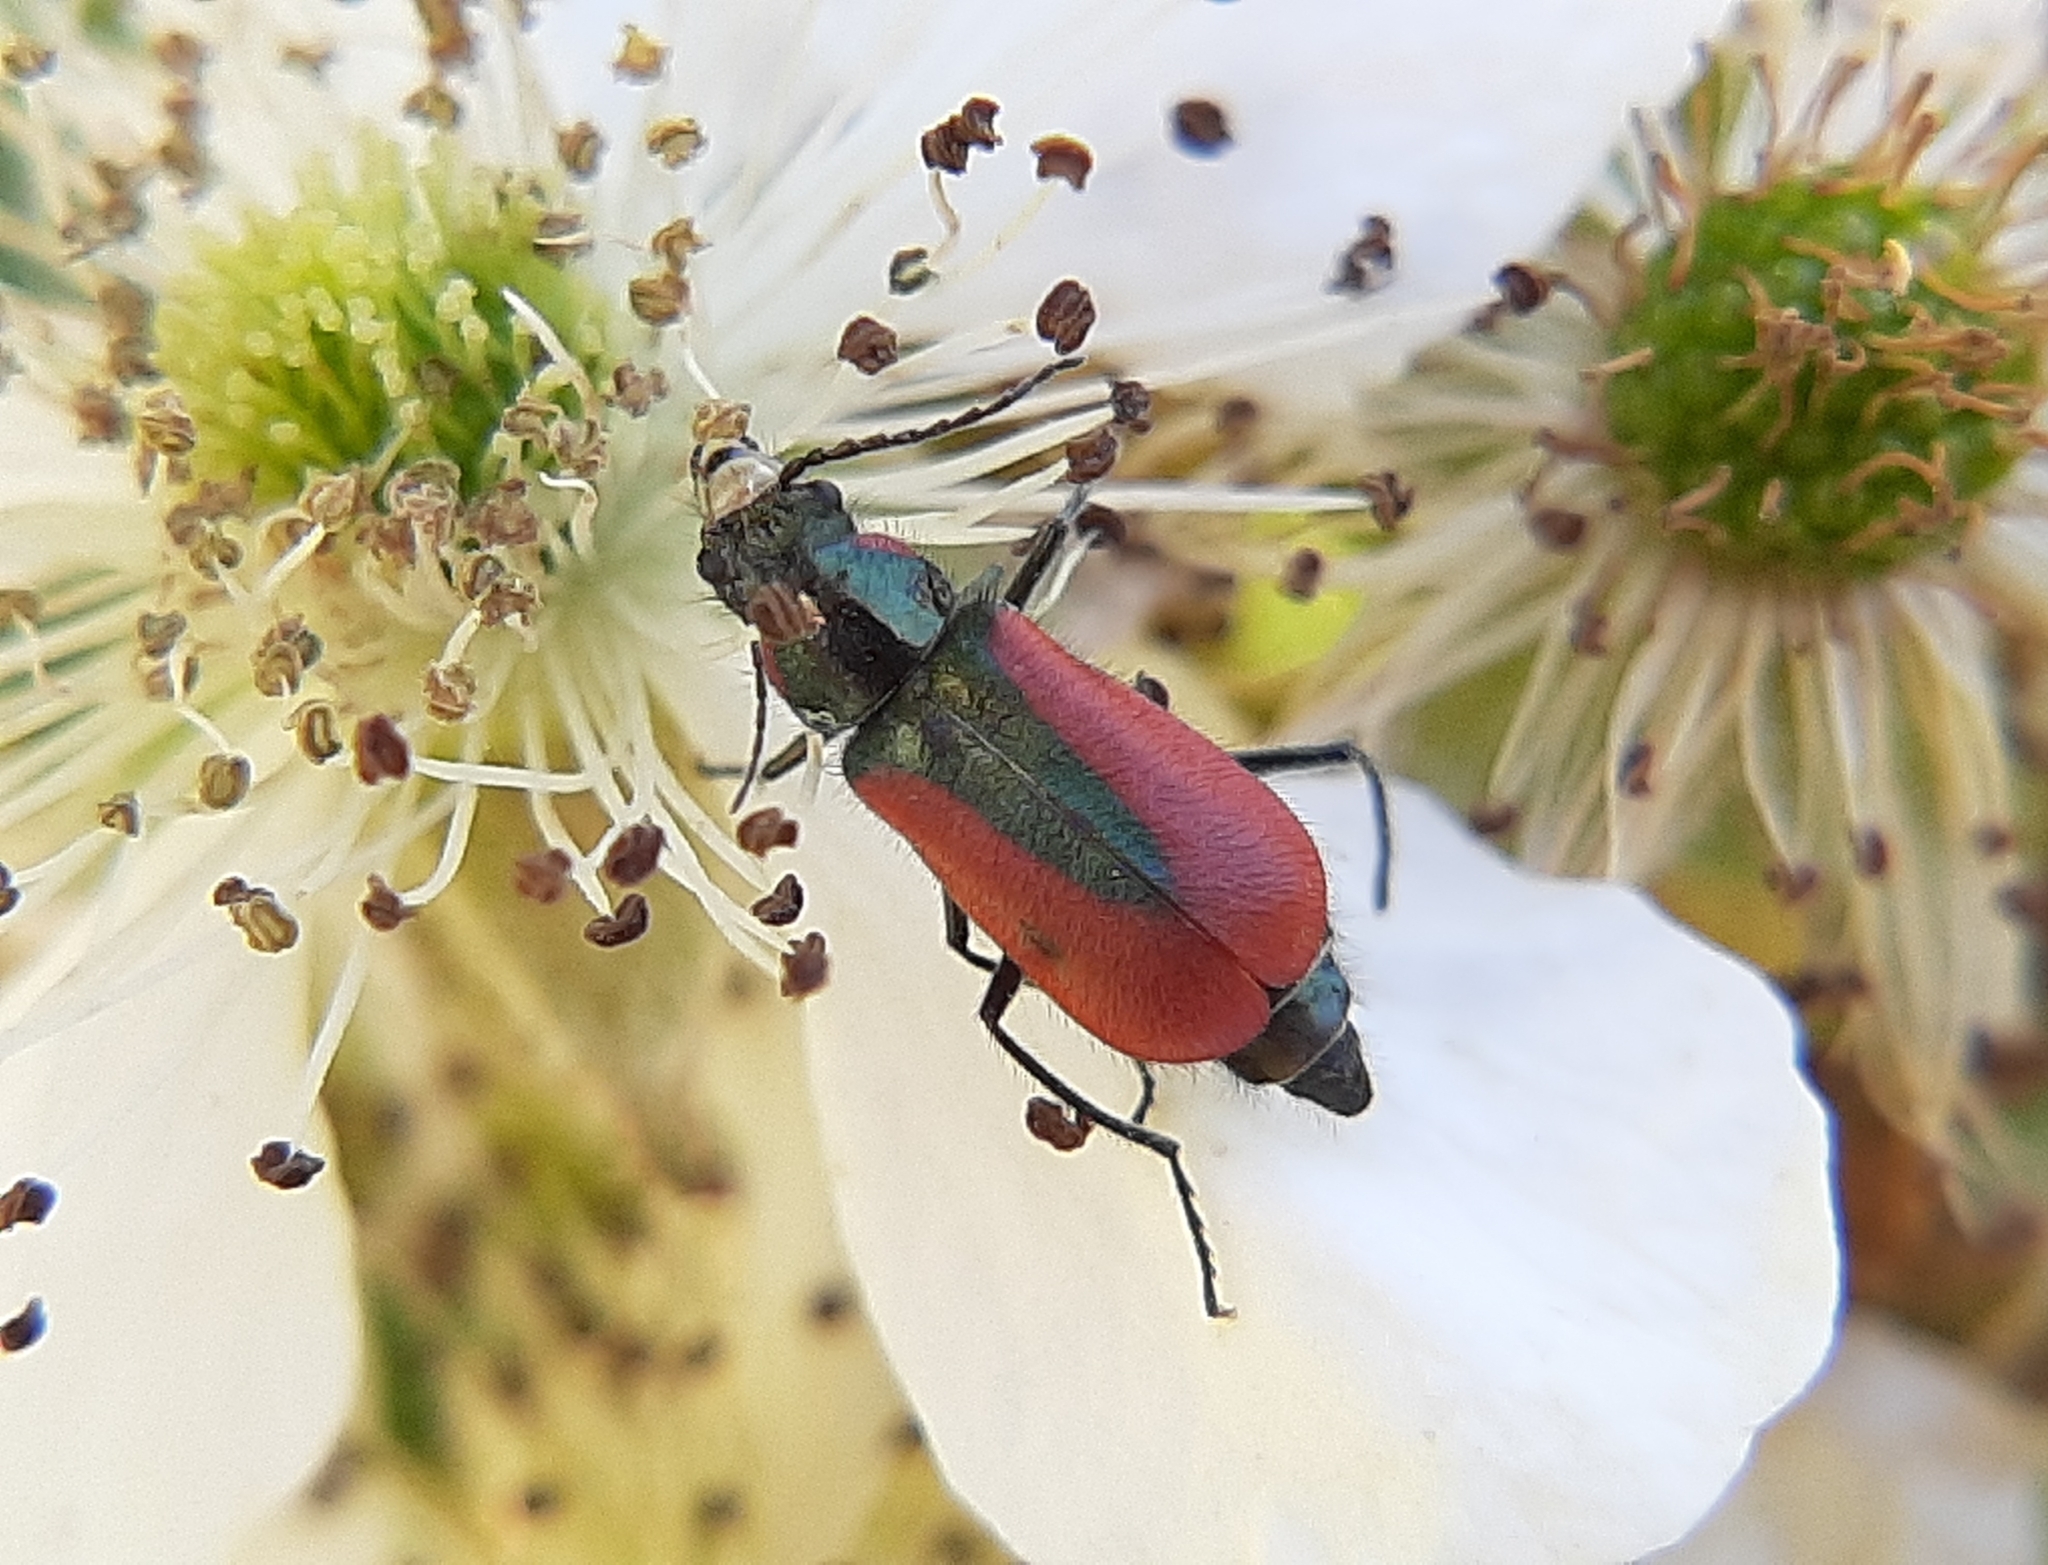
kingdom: Animalia
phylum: Arthropoda
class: Insecta
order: Coleoptera
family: Melyridae
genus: Malachius
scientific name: Malachius aeneus
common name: Scarlet malachite beetle
